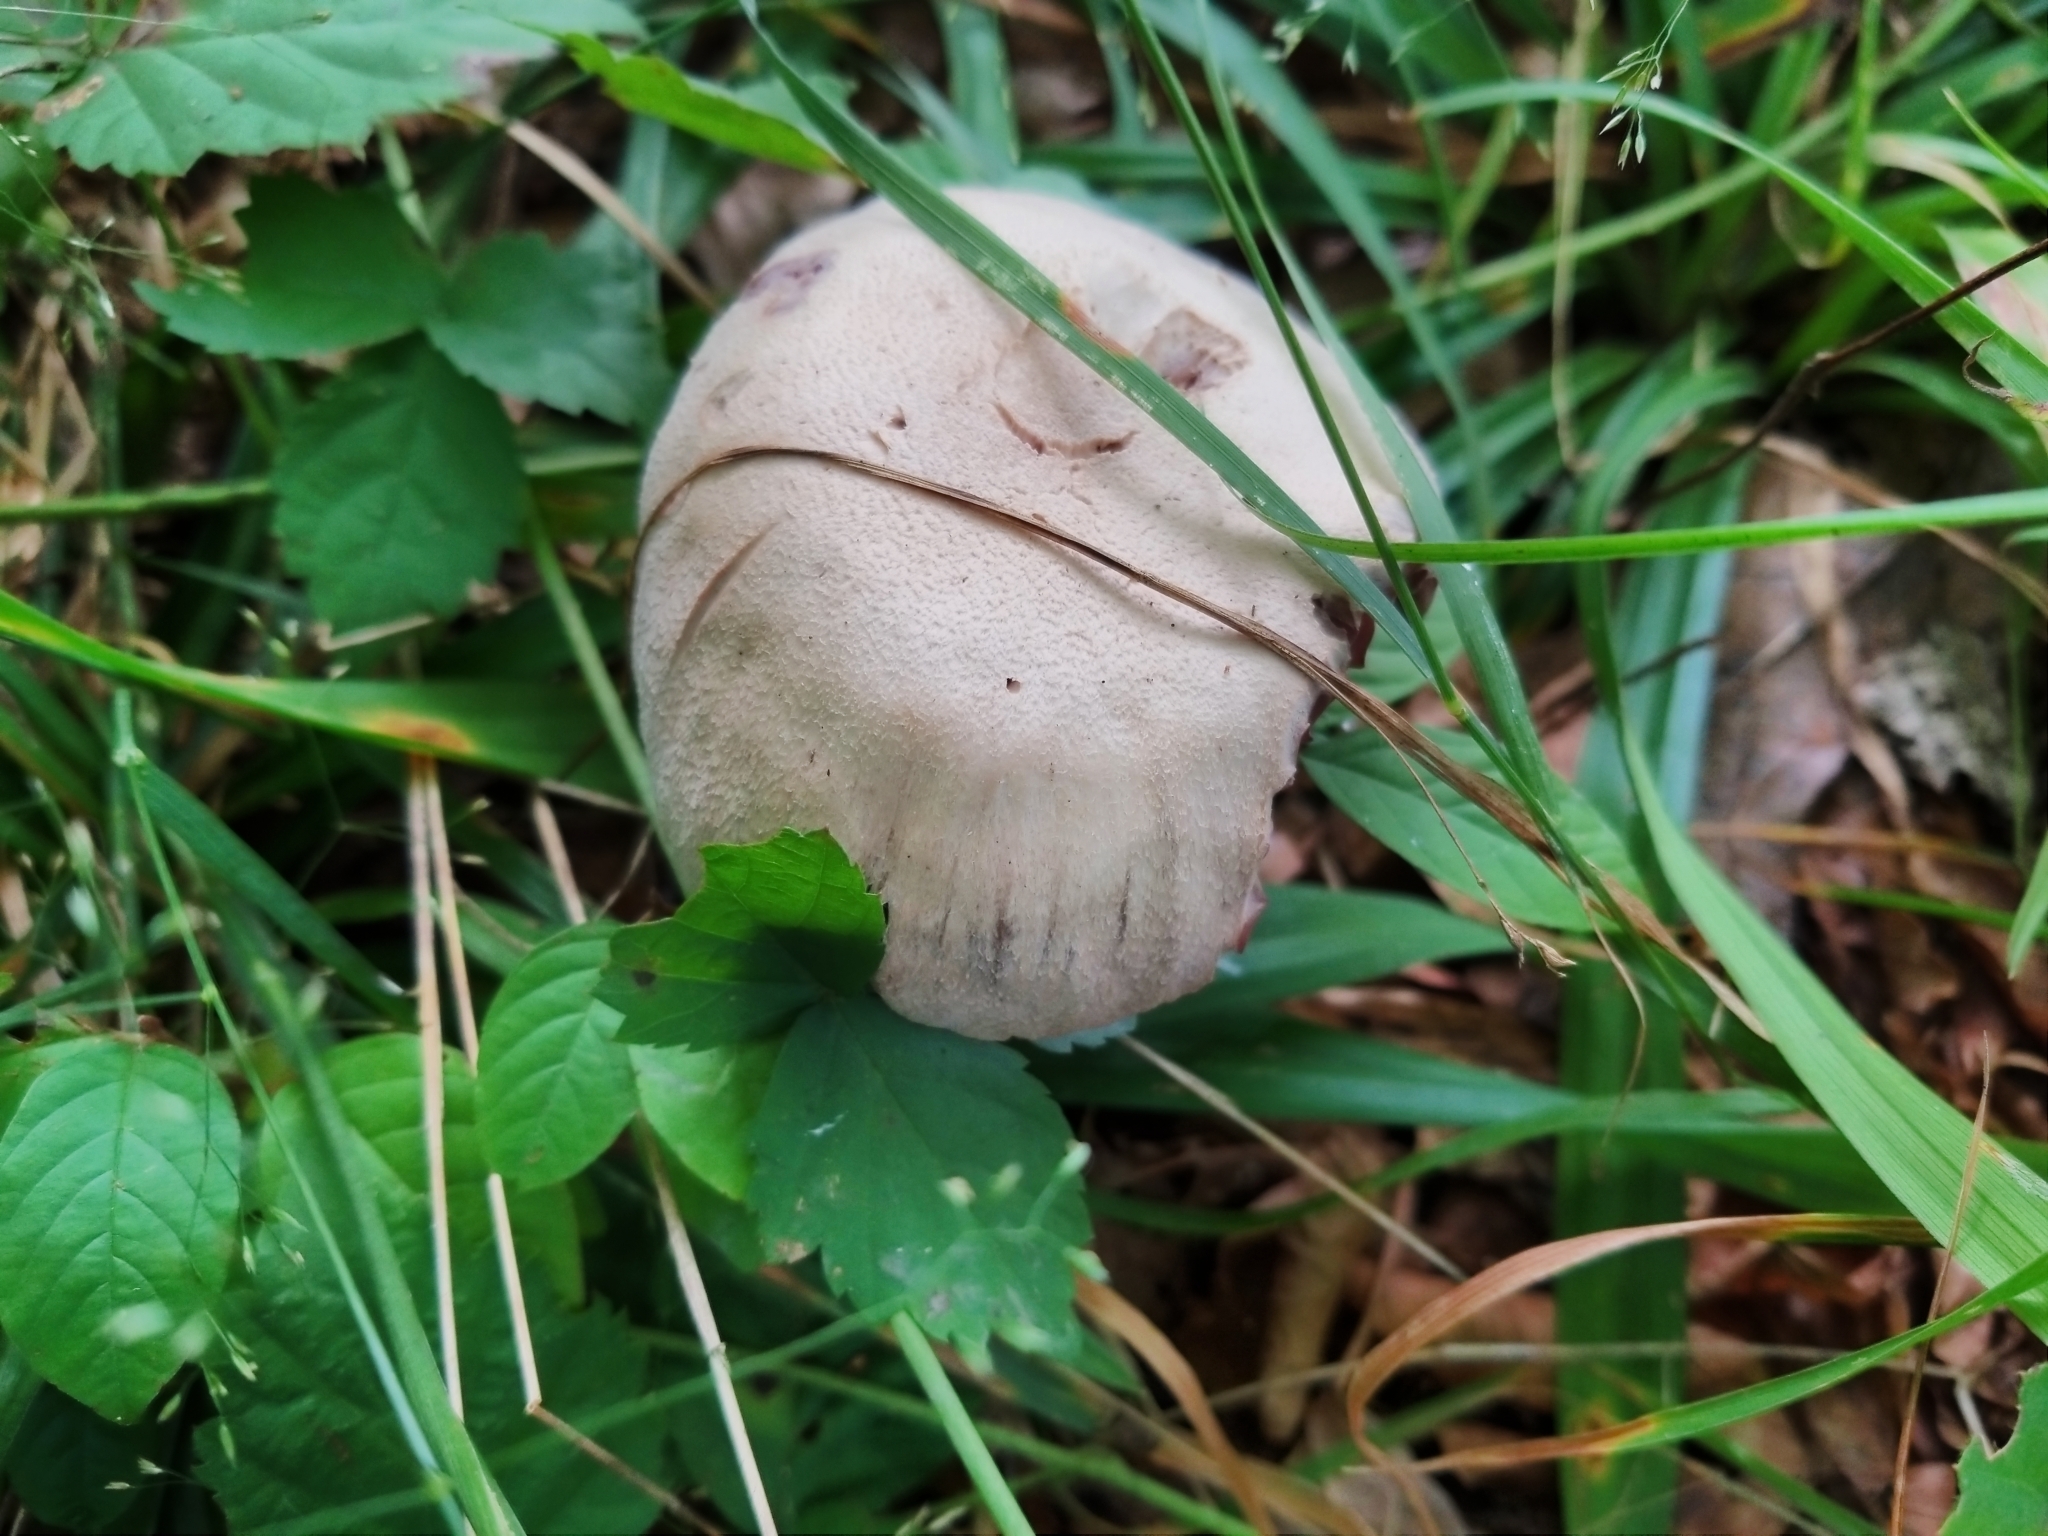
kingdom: Fungi
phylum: Basidiomycota
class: Agaricomycetes
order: Agaricales
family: Hydnangiaceae
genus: Laccaria
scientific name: Laccaria ochropurpurea
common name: Purple laccaria
